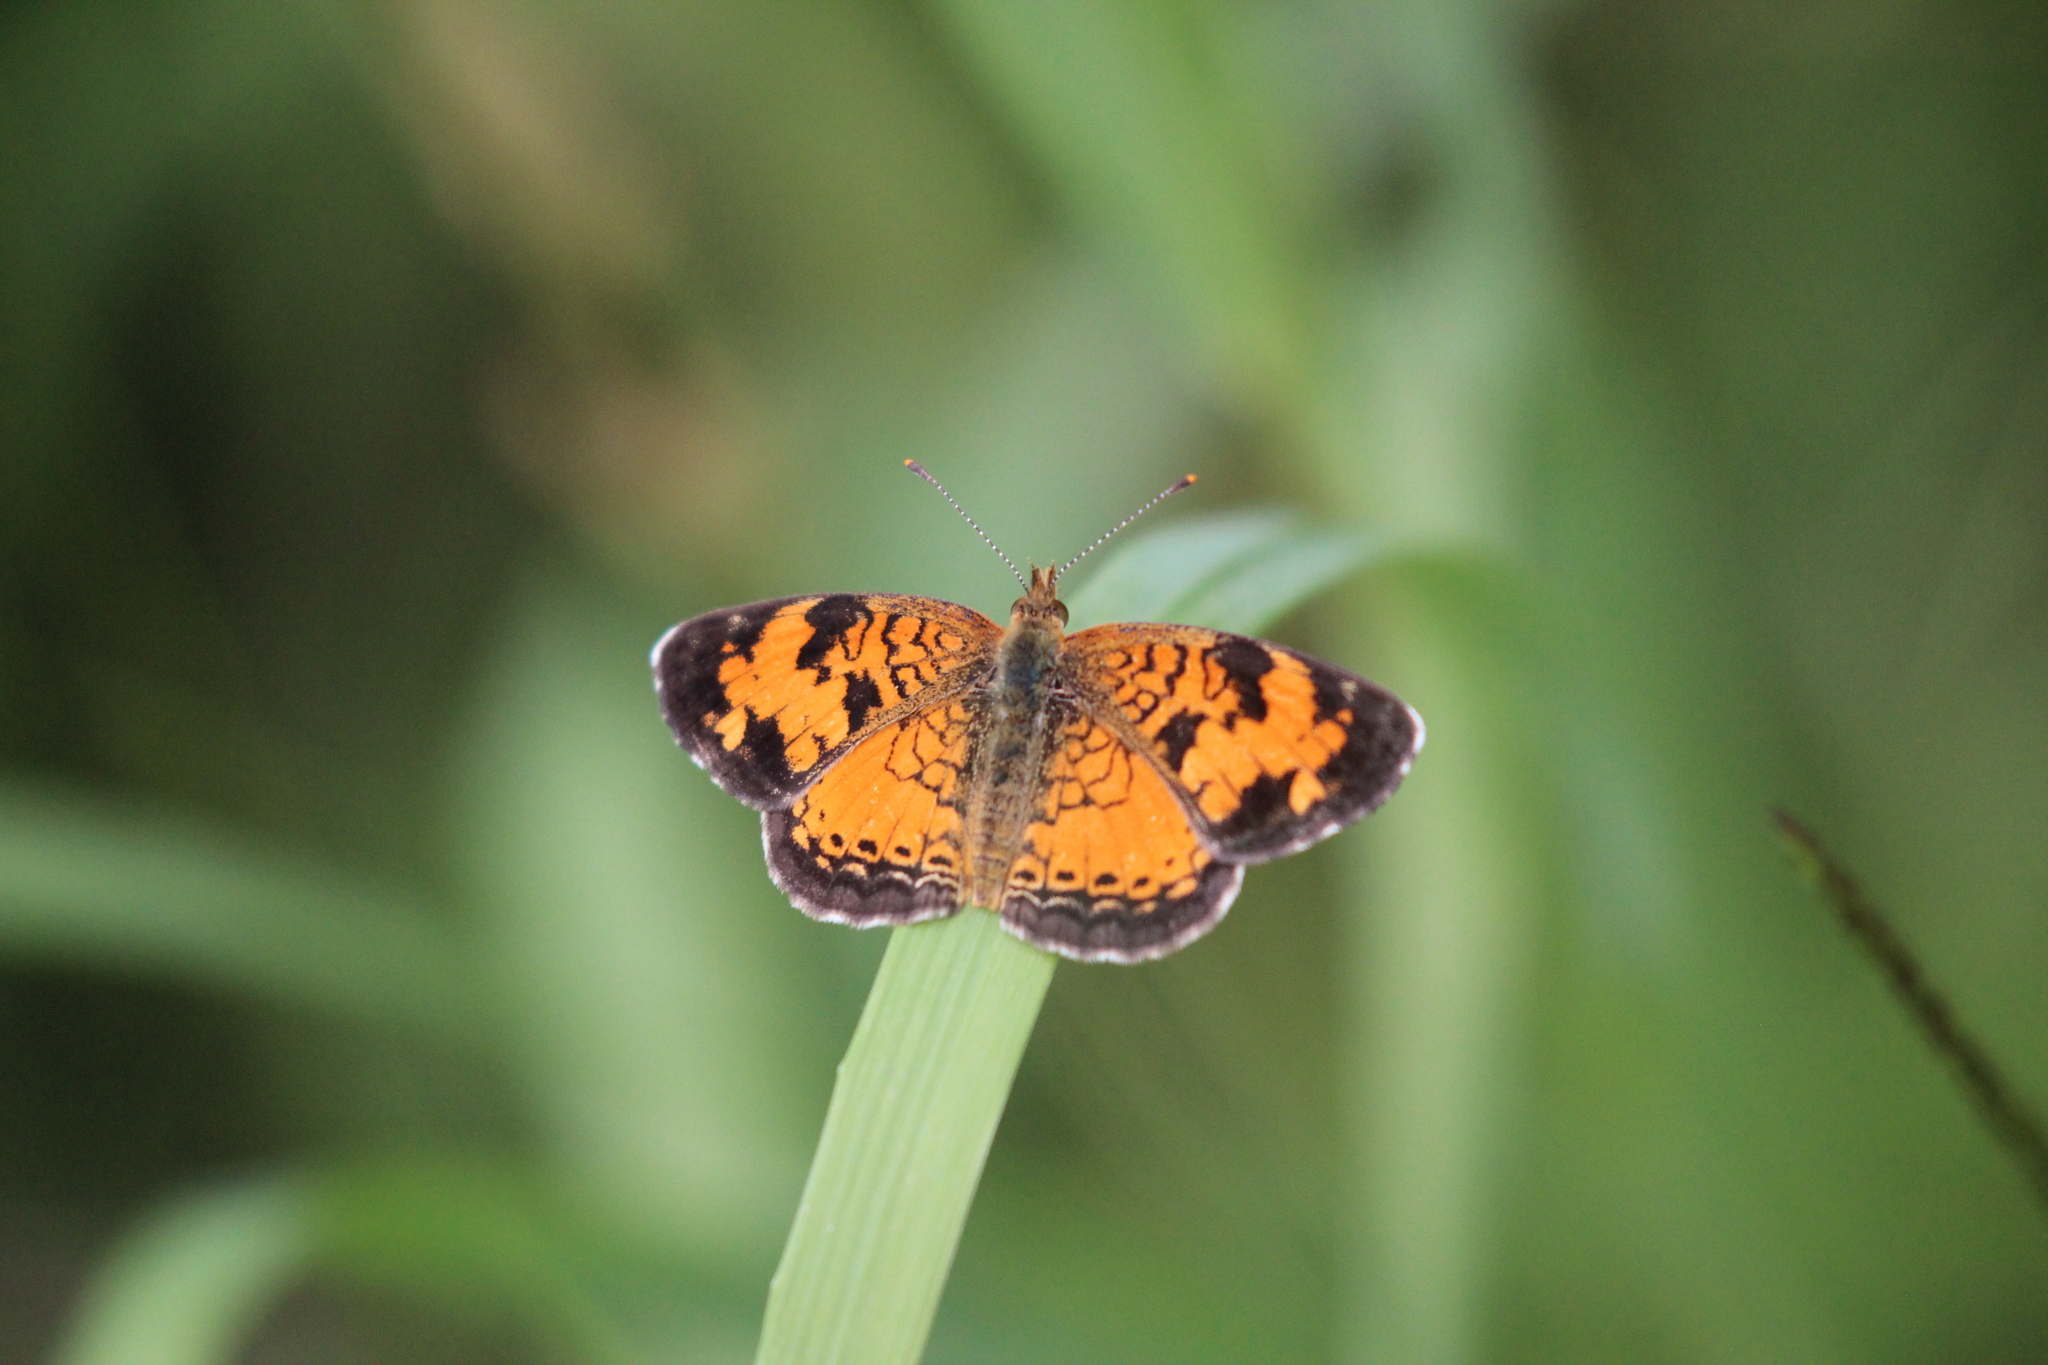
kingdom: Animalia
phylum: Arthropoda
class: Insecta
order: Lepidoptera
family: Nymphalidae
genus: Phyciodes
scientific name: Phyciodes tharos
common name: Pearl crescent
